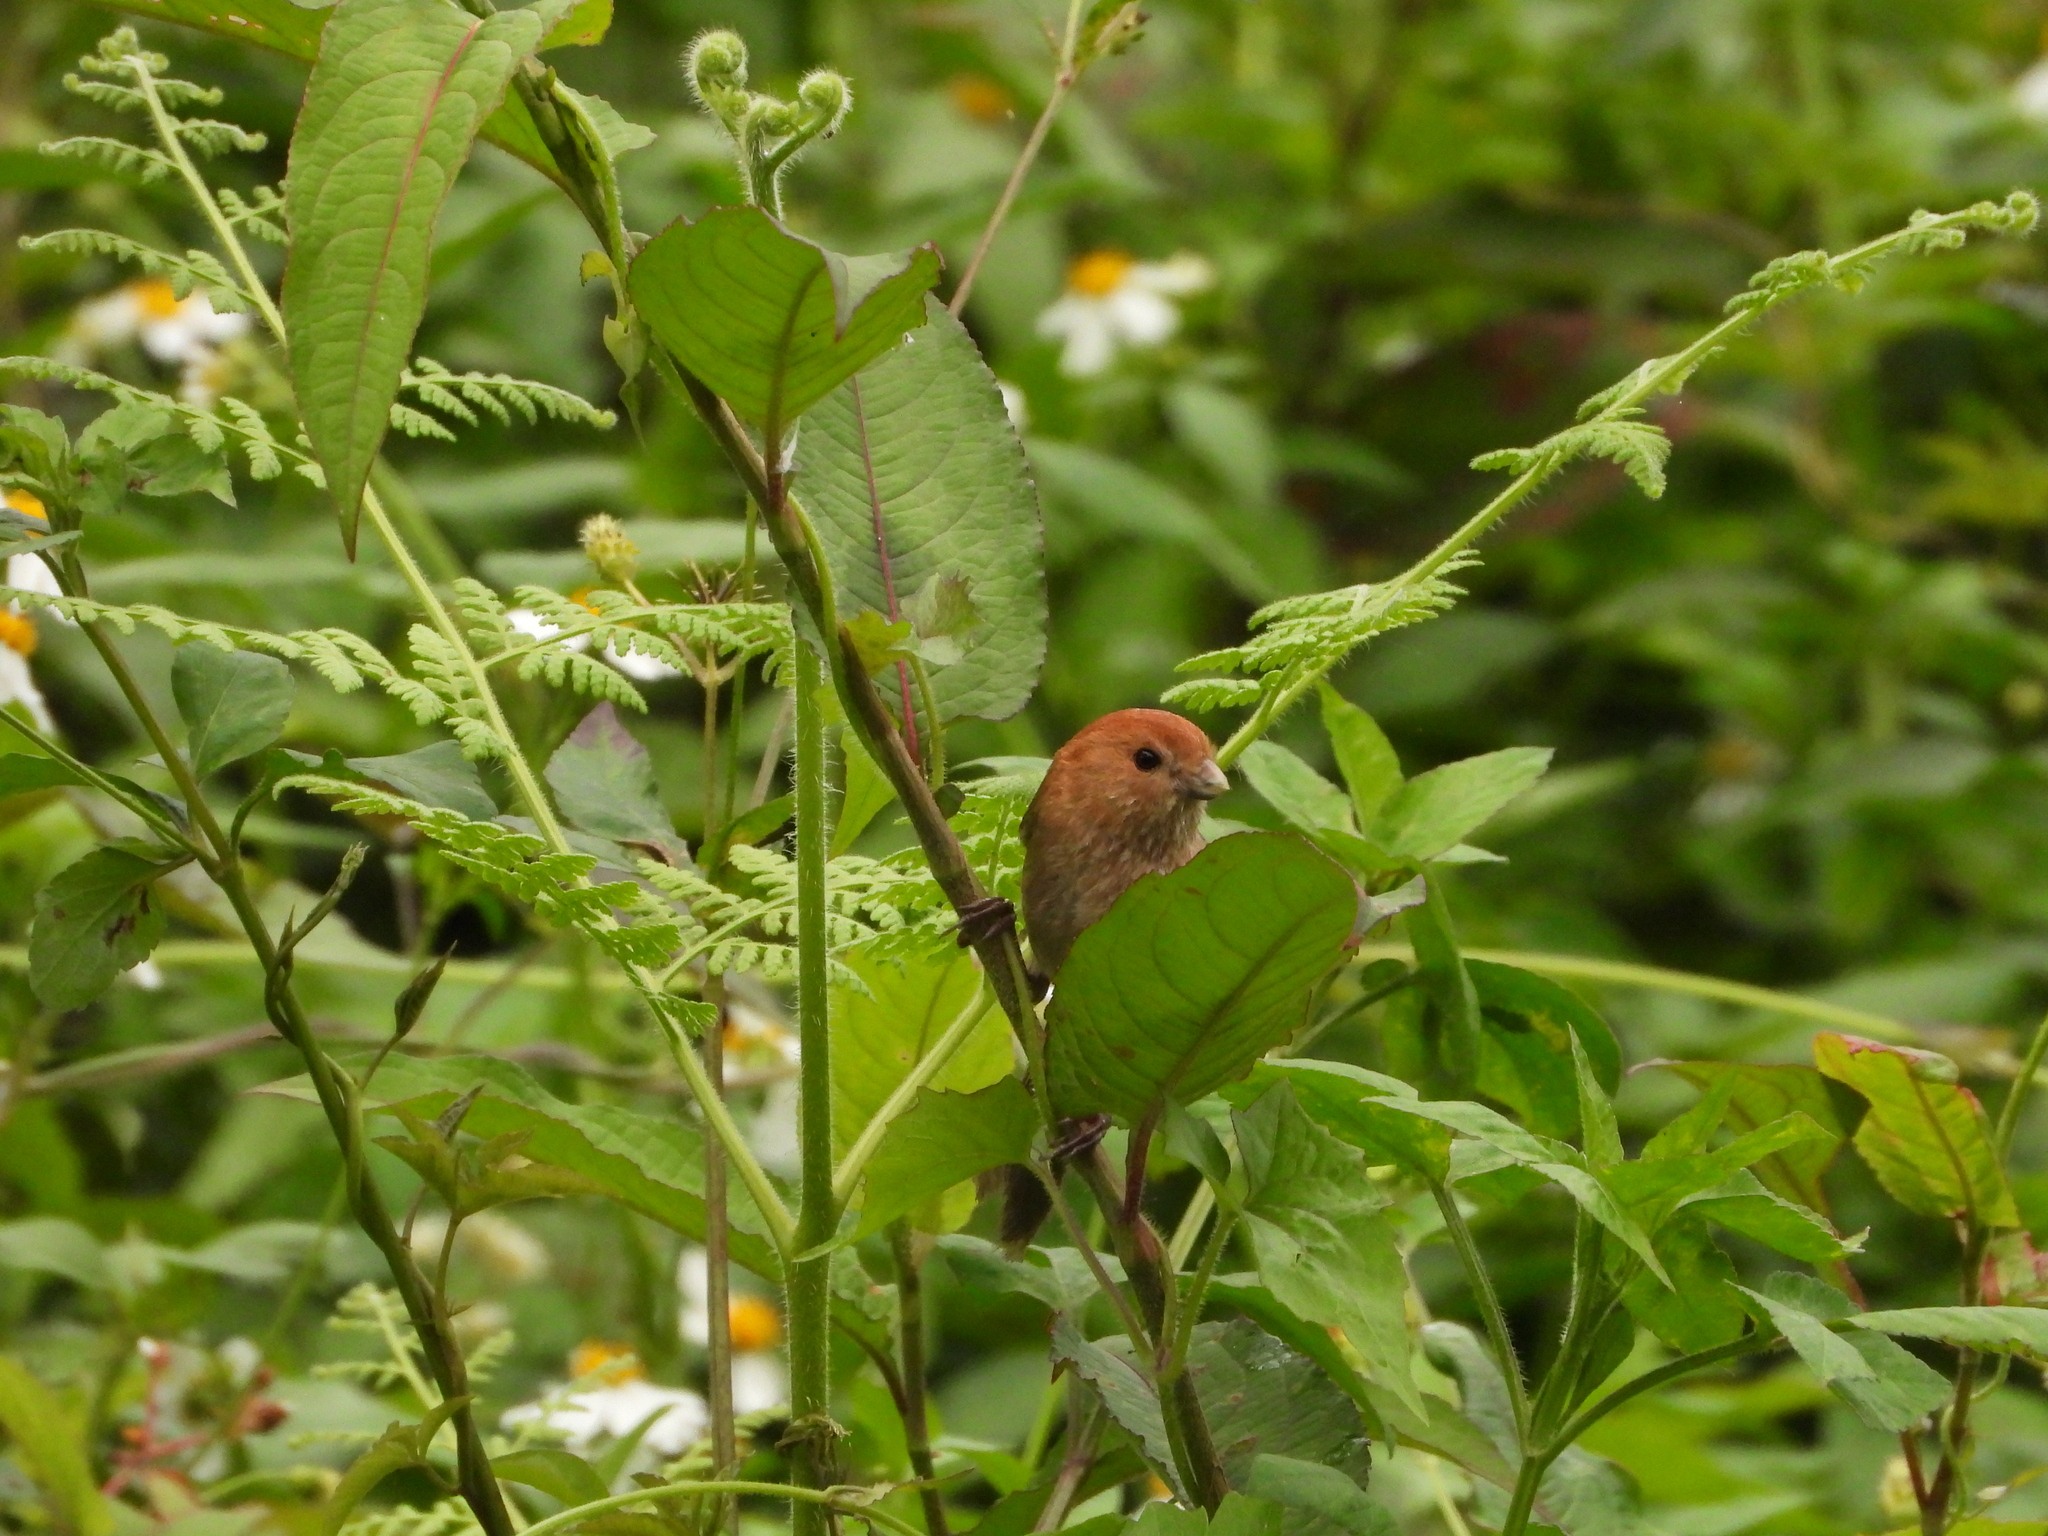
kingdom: Animalia
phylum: Chordata
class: Aves
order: Passeriformes
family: Sylviidae
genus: Sinosuthora
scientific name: Sinosuthora webbiana
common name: Vinous-throated parrotbill
